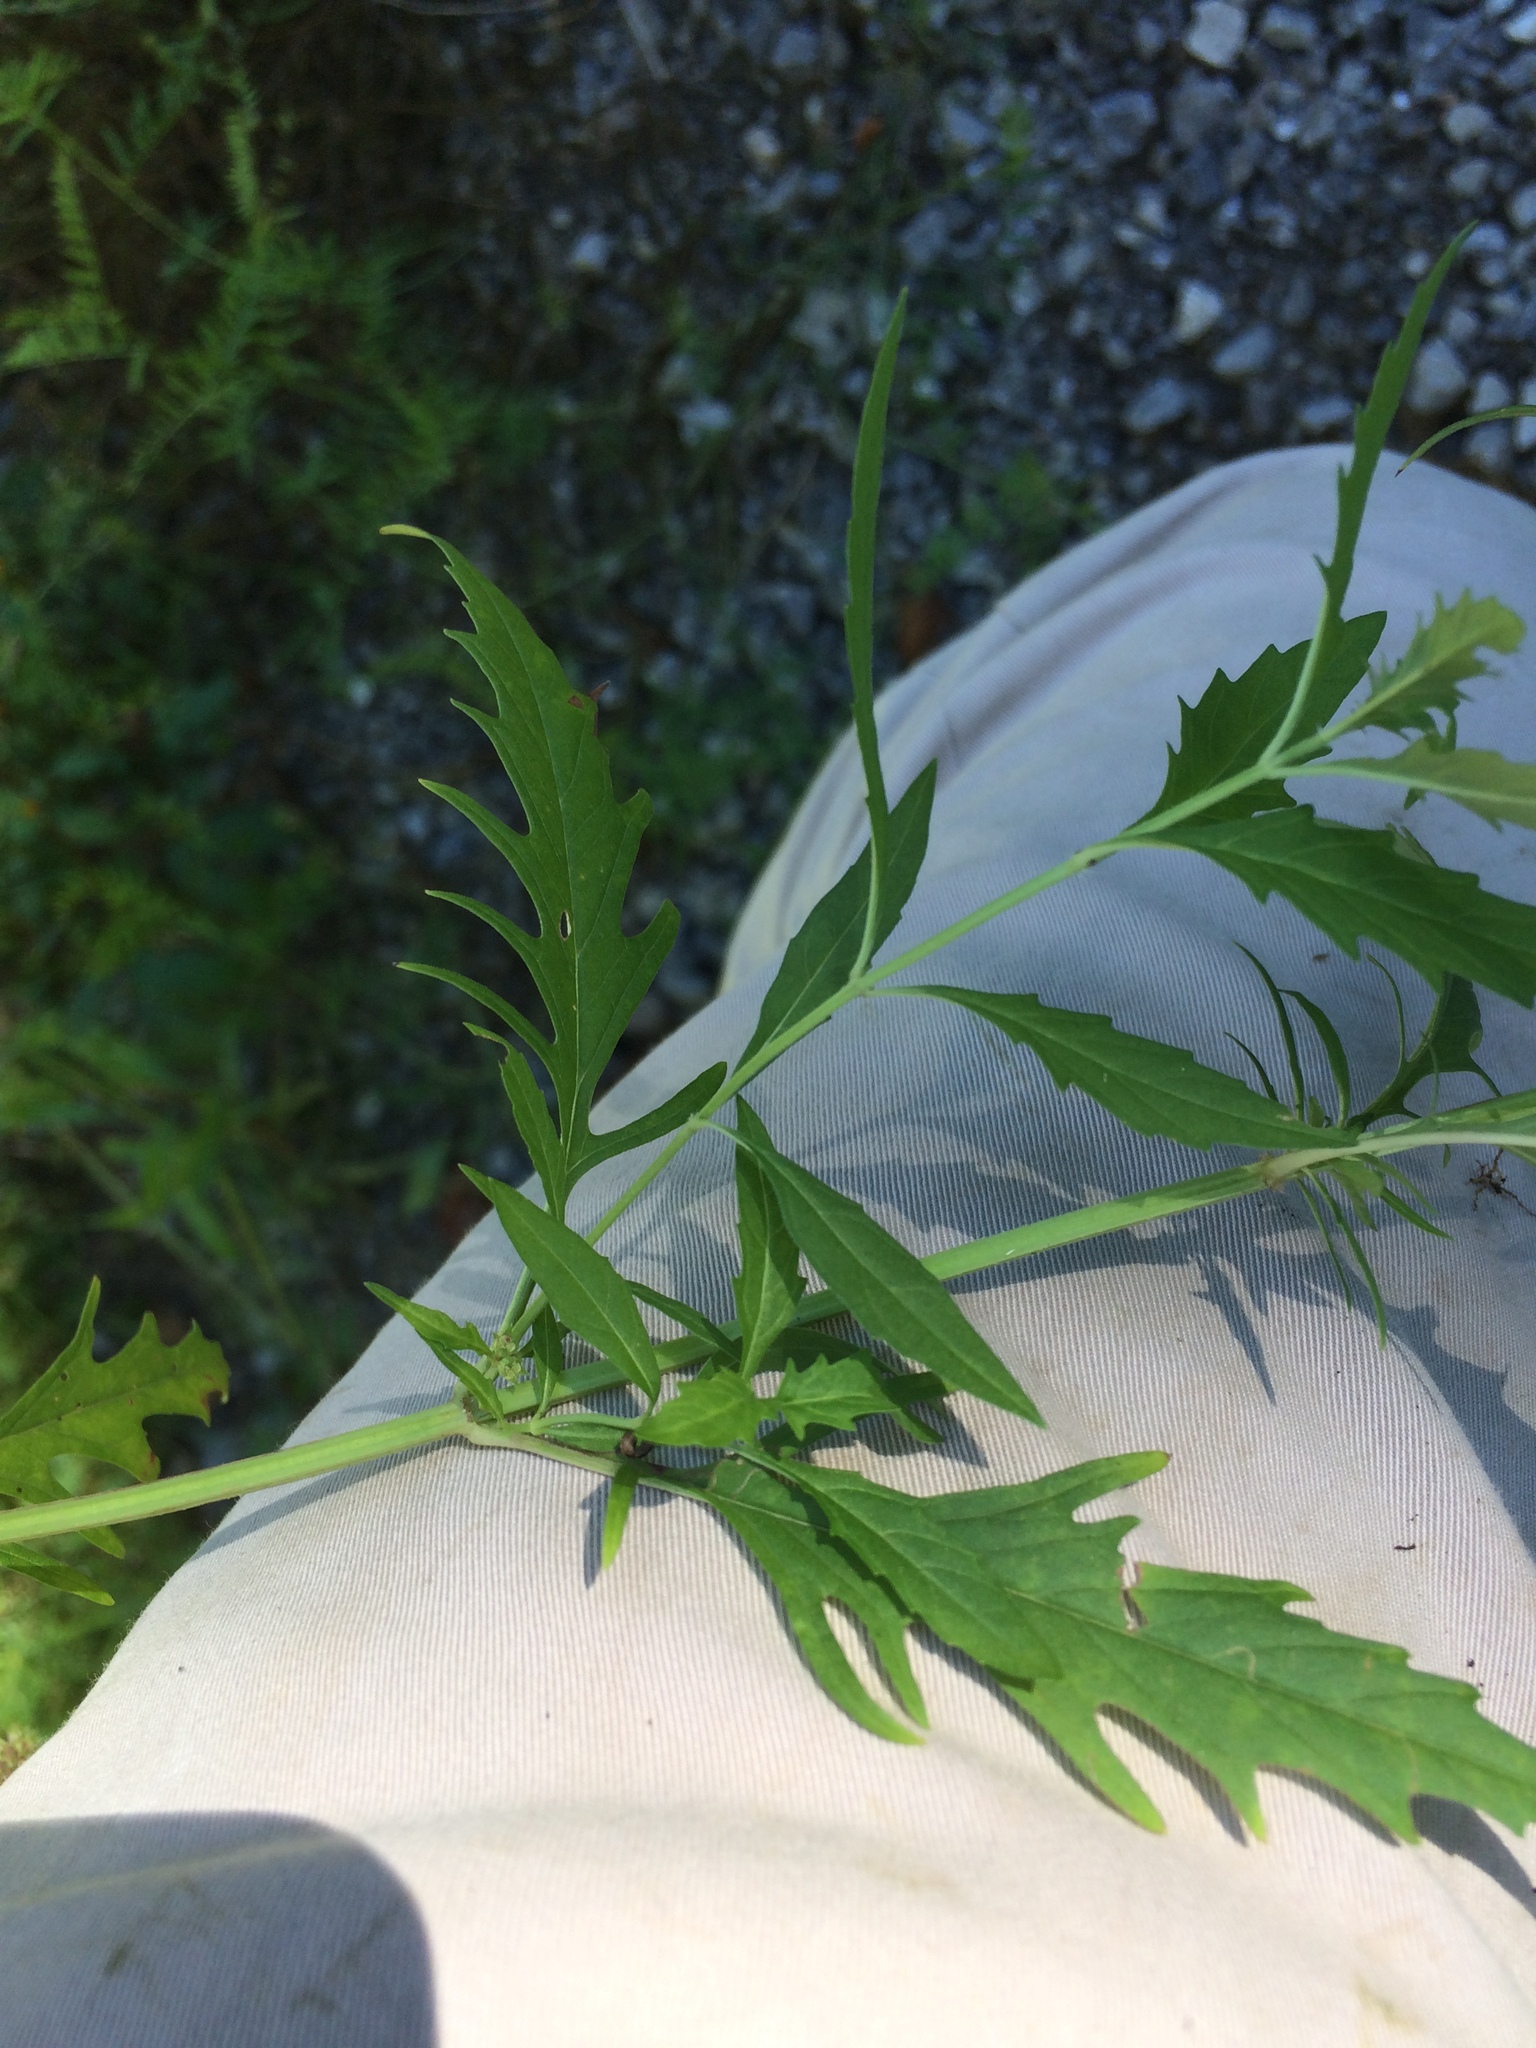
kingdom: Plantae
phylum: Tracheophyta
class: Magnoliopsida
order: Lamiales
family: Lamiaceae
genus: Lycopus
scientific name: Lycopus americanus
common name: American bugleweed
